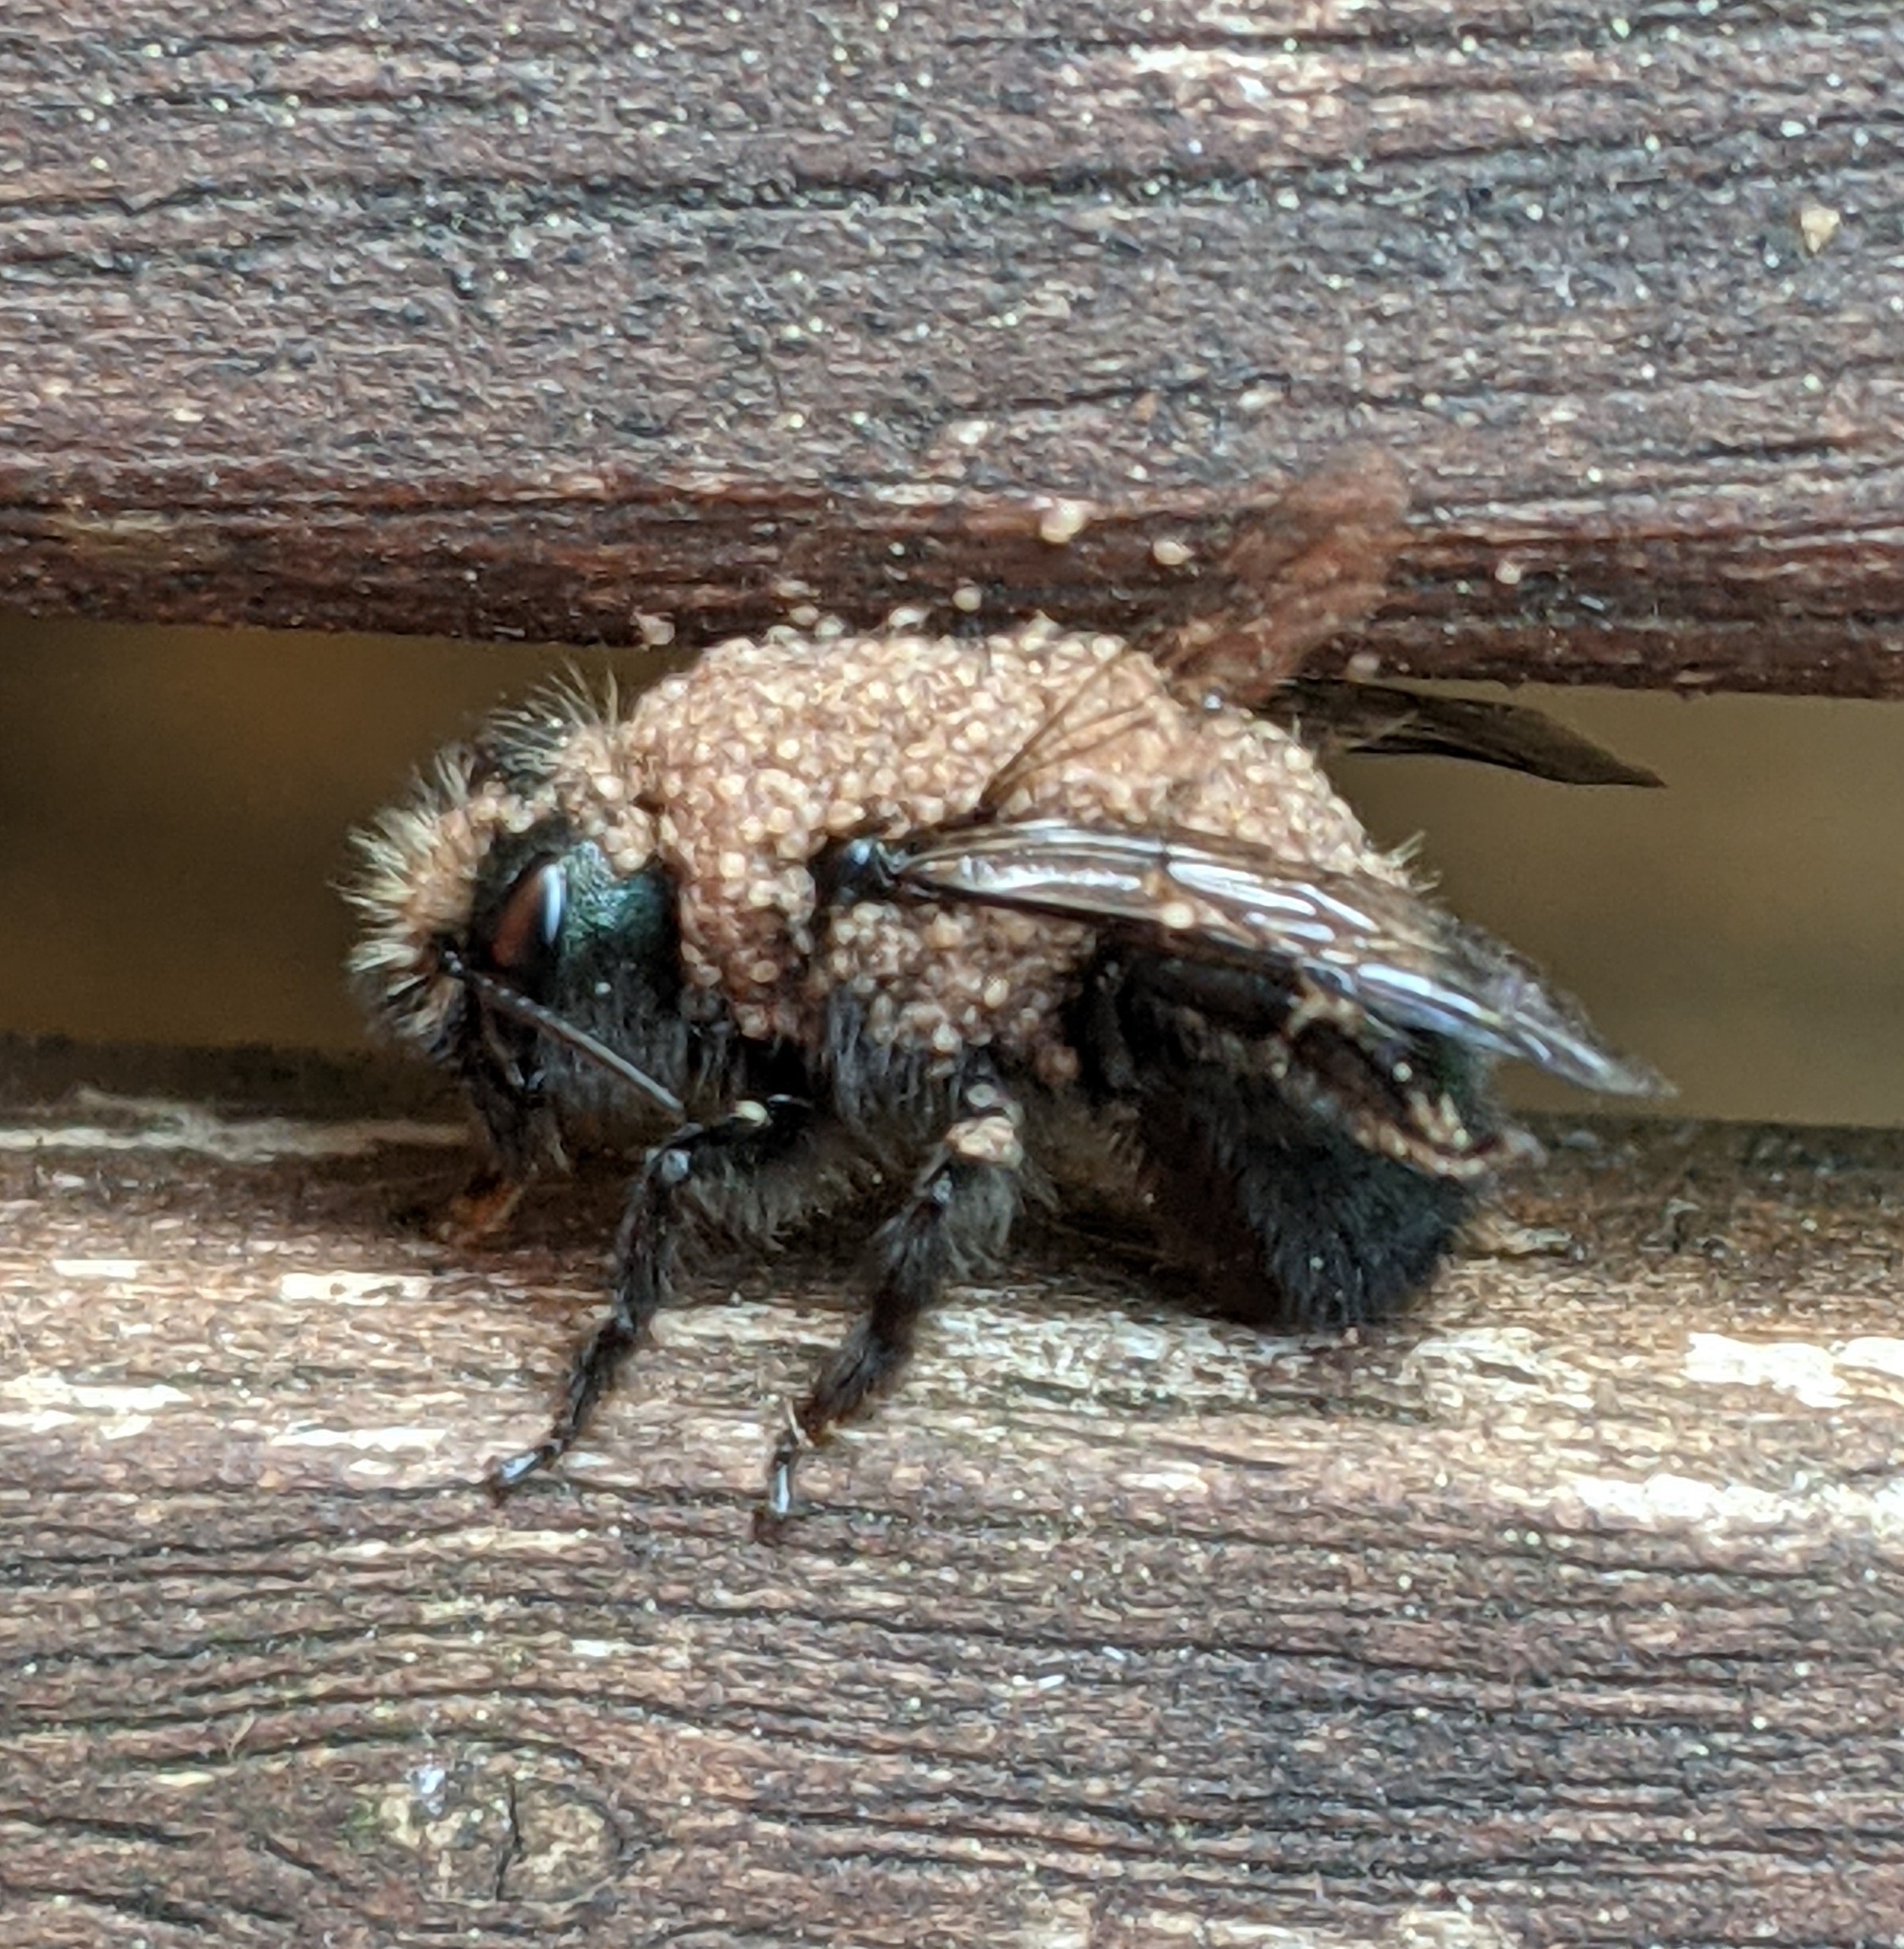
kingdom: Animalia
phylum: Arthropoda
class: Arachnida
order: Sarcoptiformes
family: Chaetodactylidae
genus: Chaetodactylus
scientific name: Chaetodactylus krombeini
